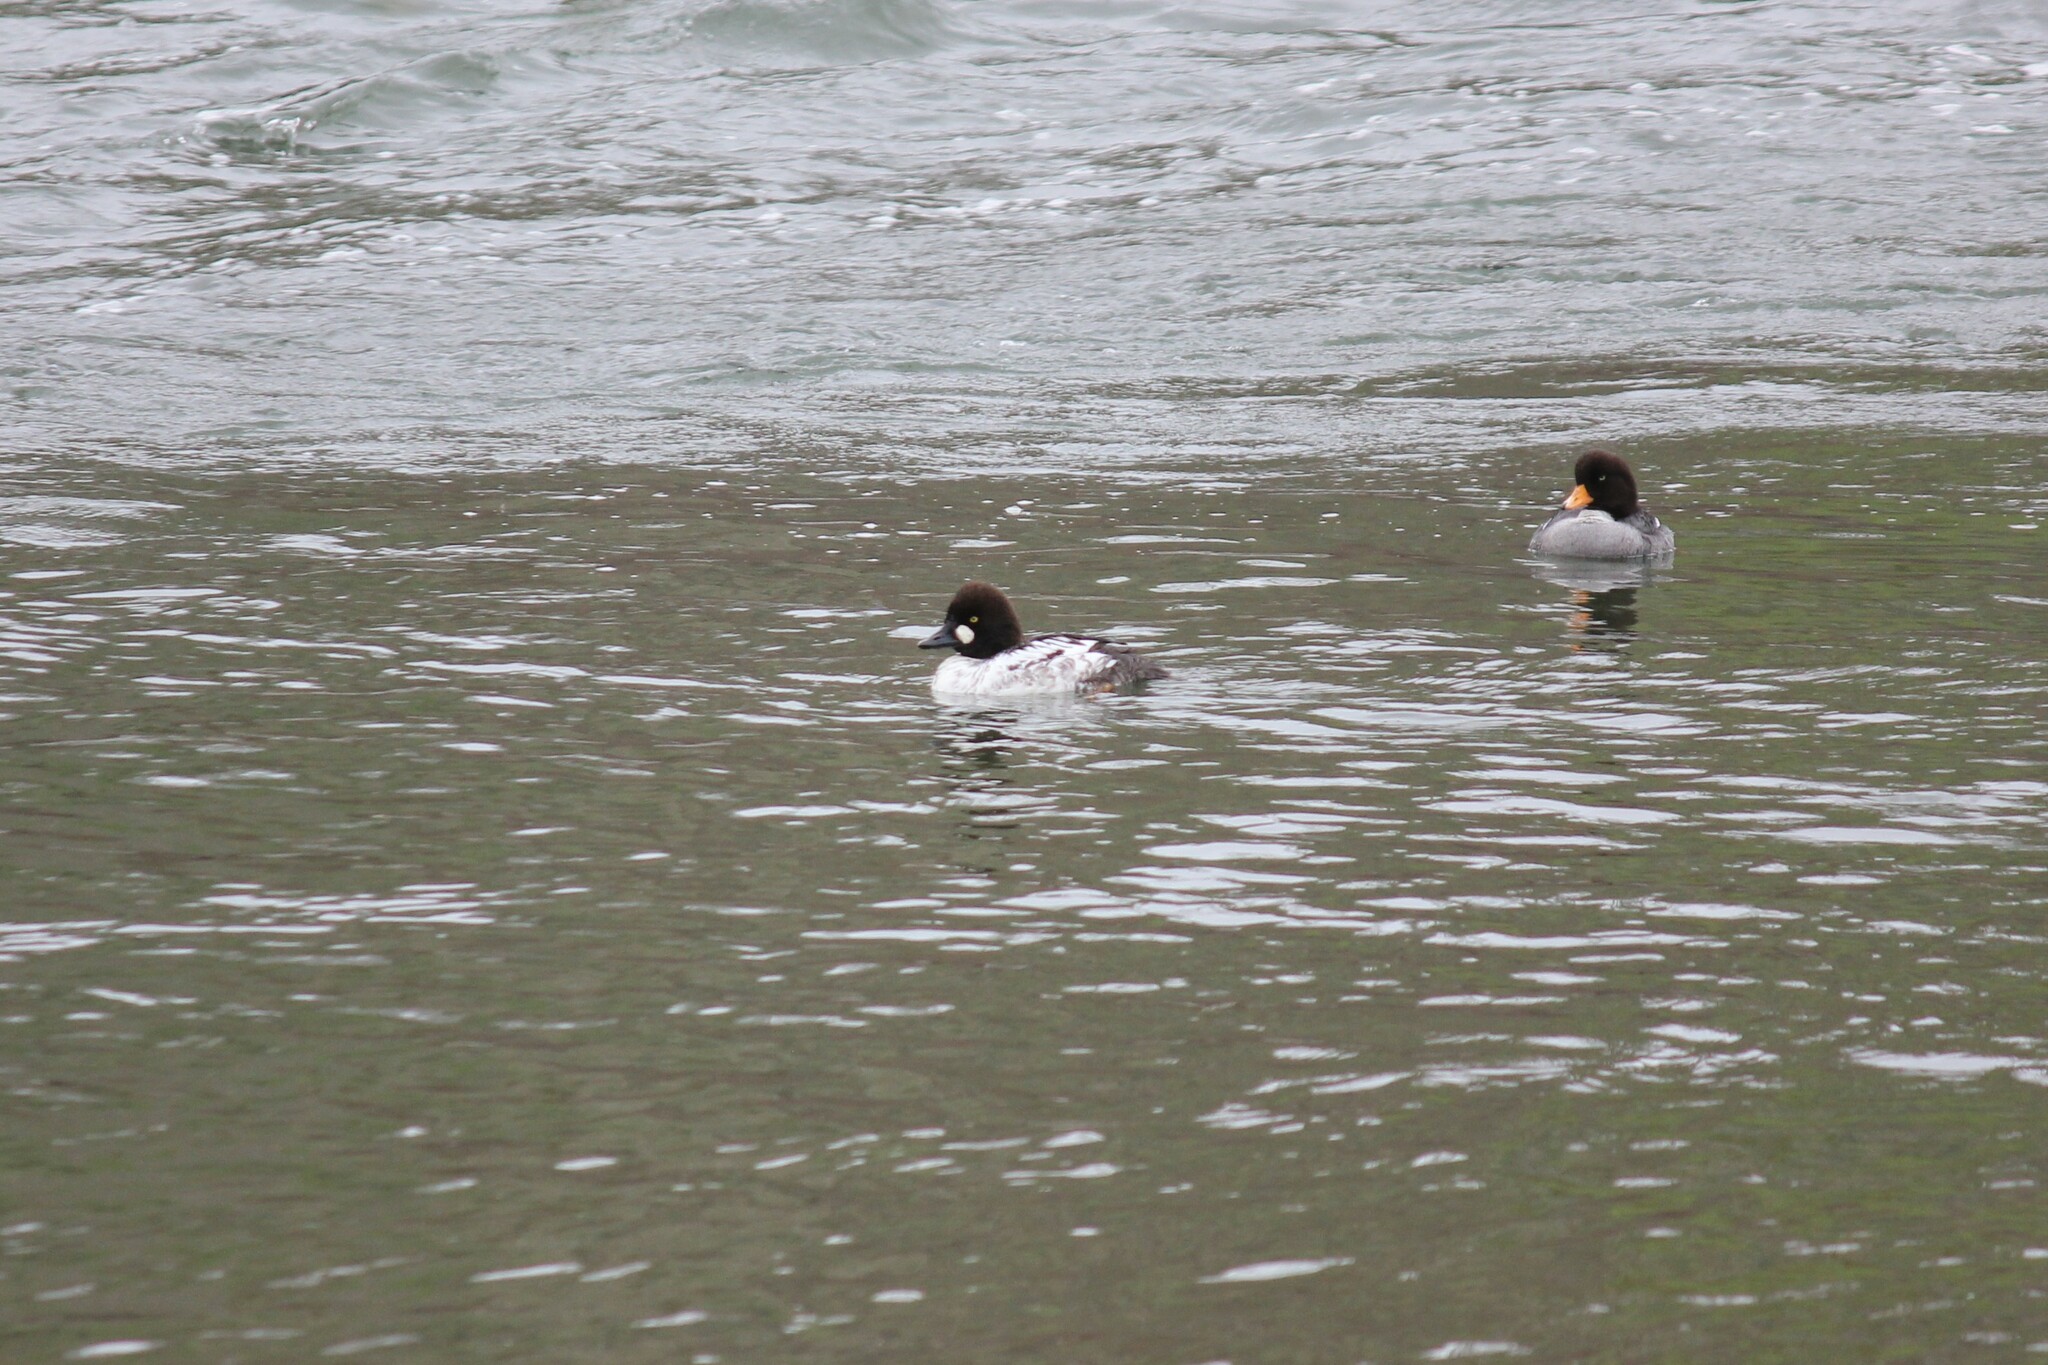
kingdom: Animalia
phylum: Chordata
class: Aves
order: Anseriformes
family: Anatidae
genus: Bucephala
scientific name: Bucephala clangula
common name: Common goldeneye
